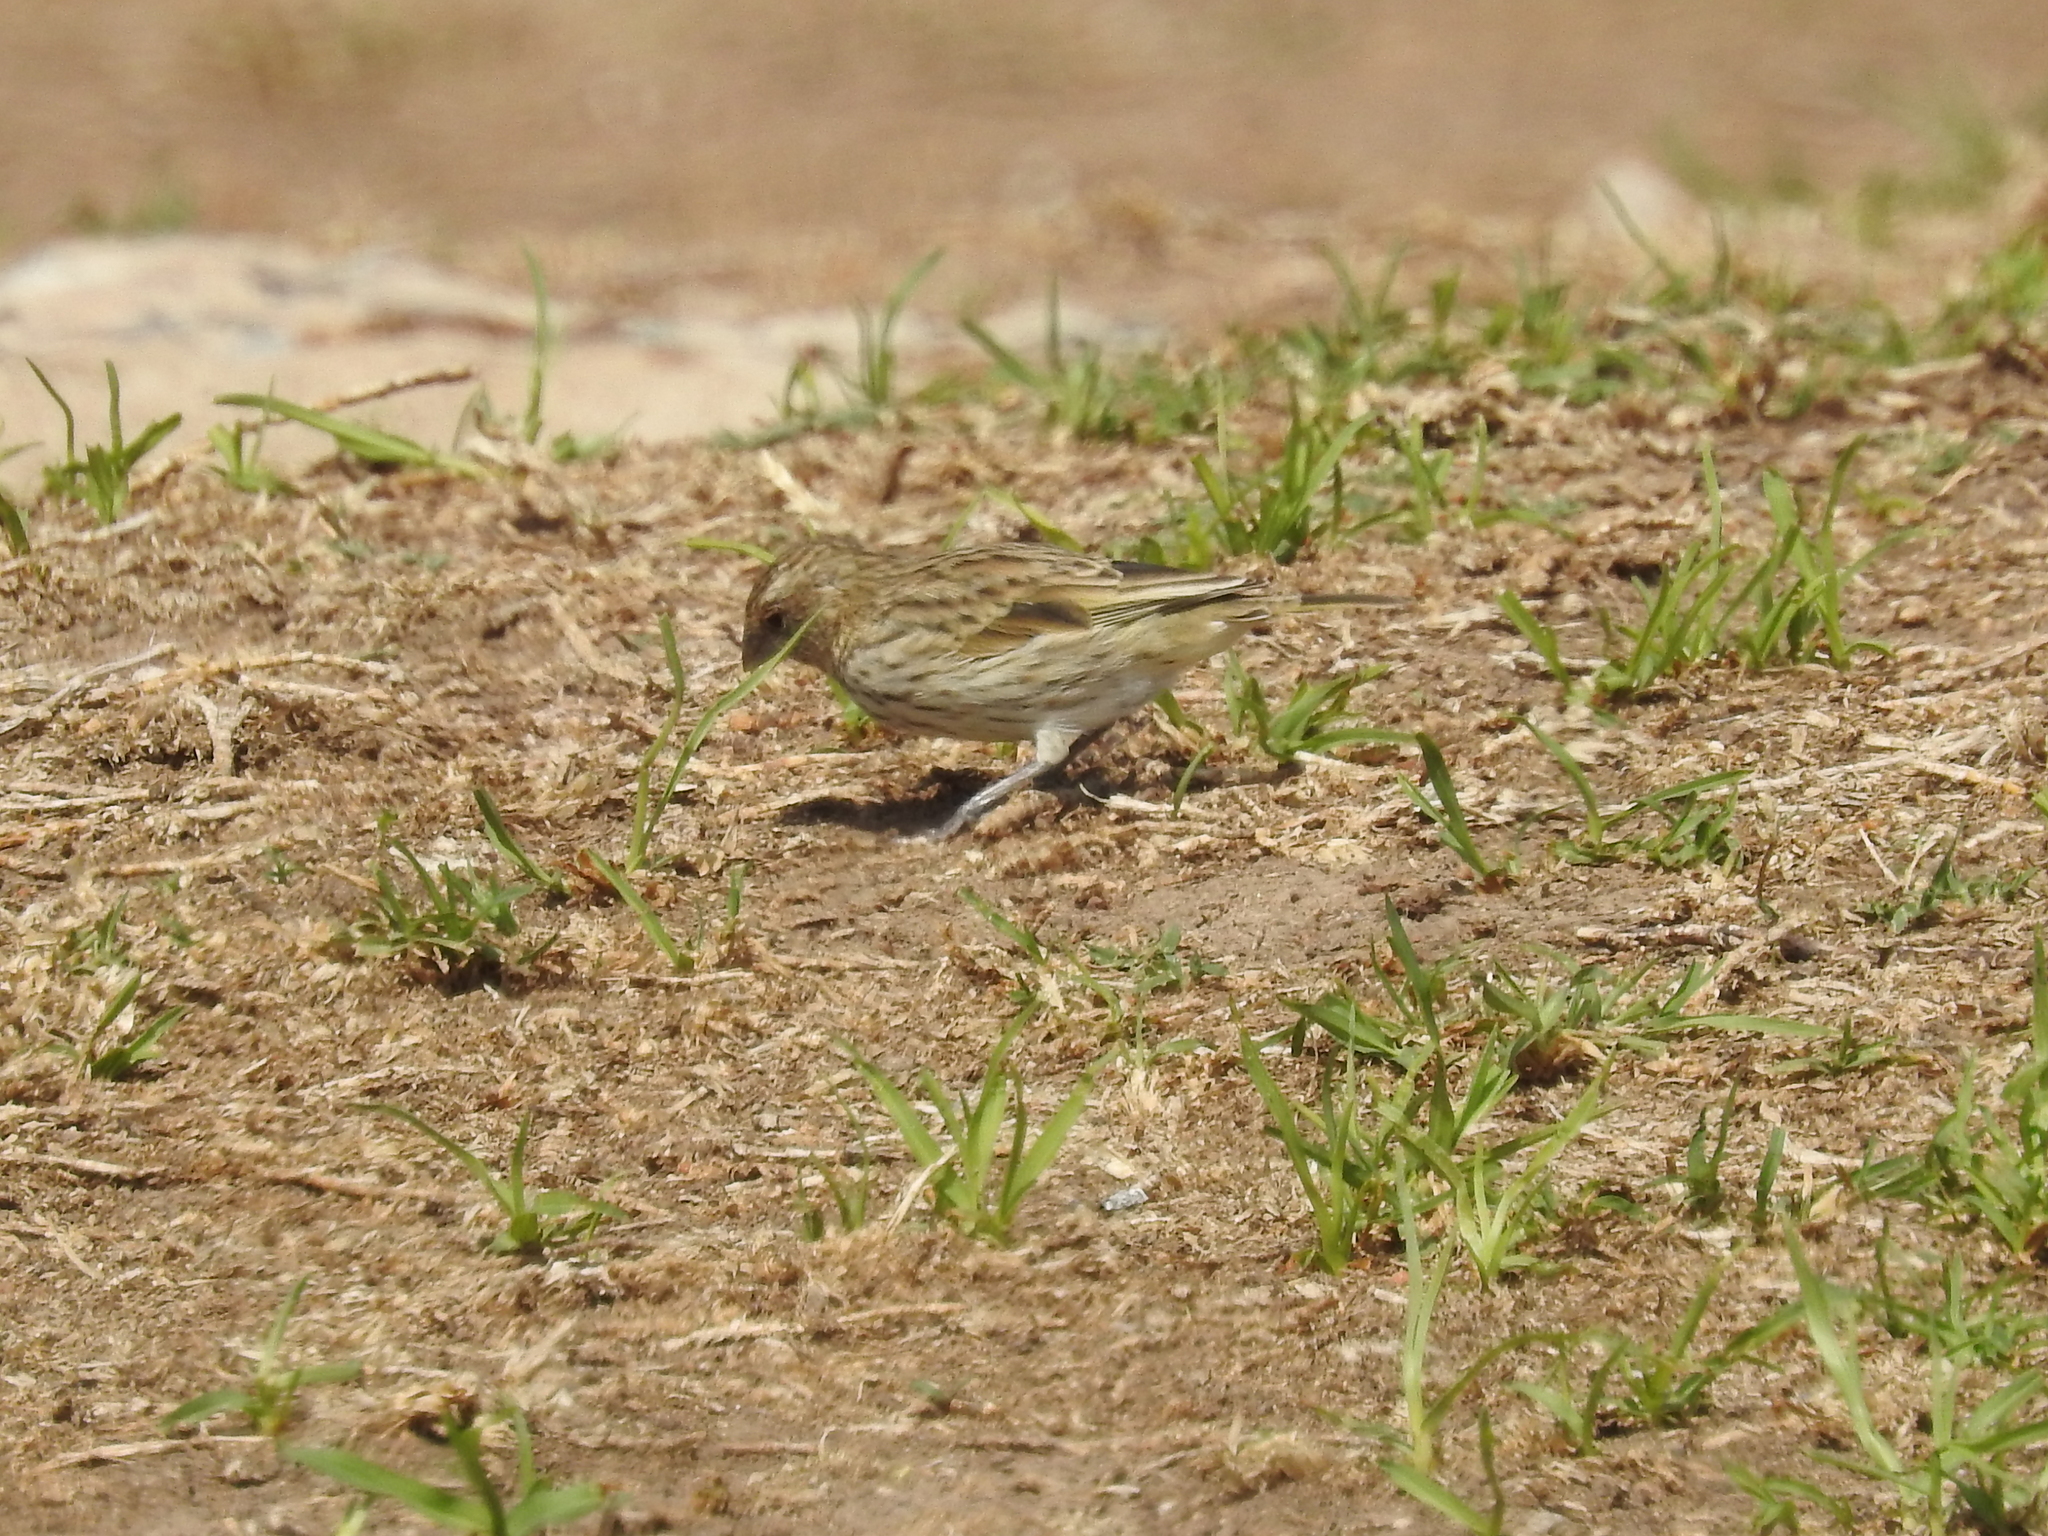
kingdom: Animalia
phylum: Chordata
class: Aves
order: Passeriformes
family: Thraupidae
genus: Sicalis
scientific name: Sicalis flaveola
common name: Saffron finch
